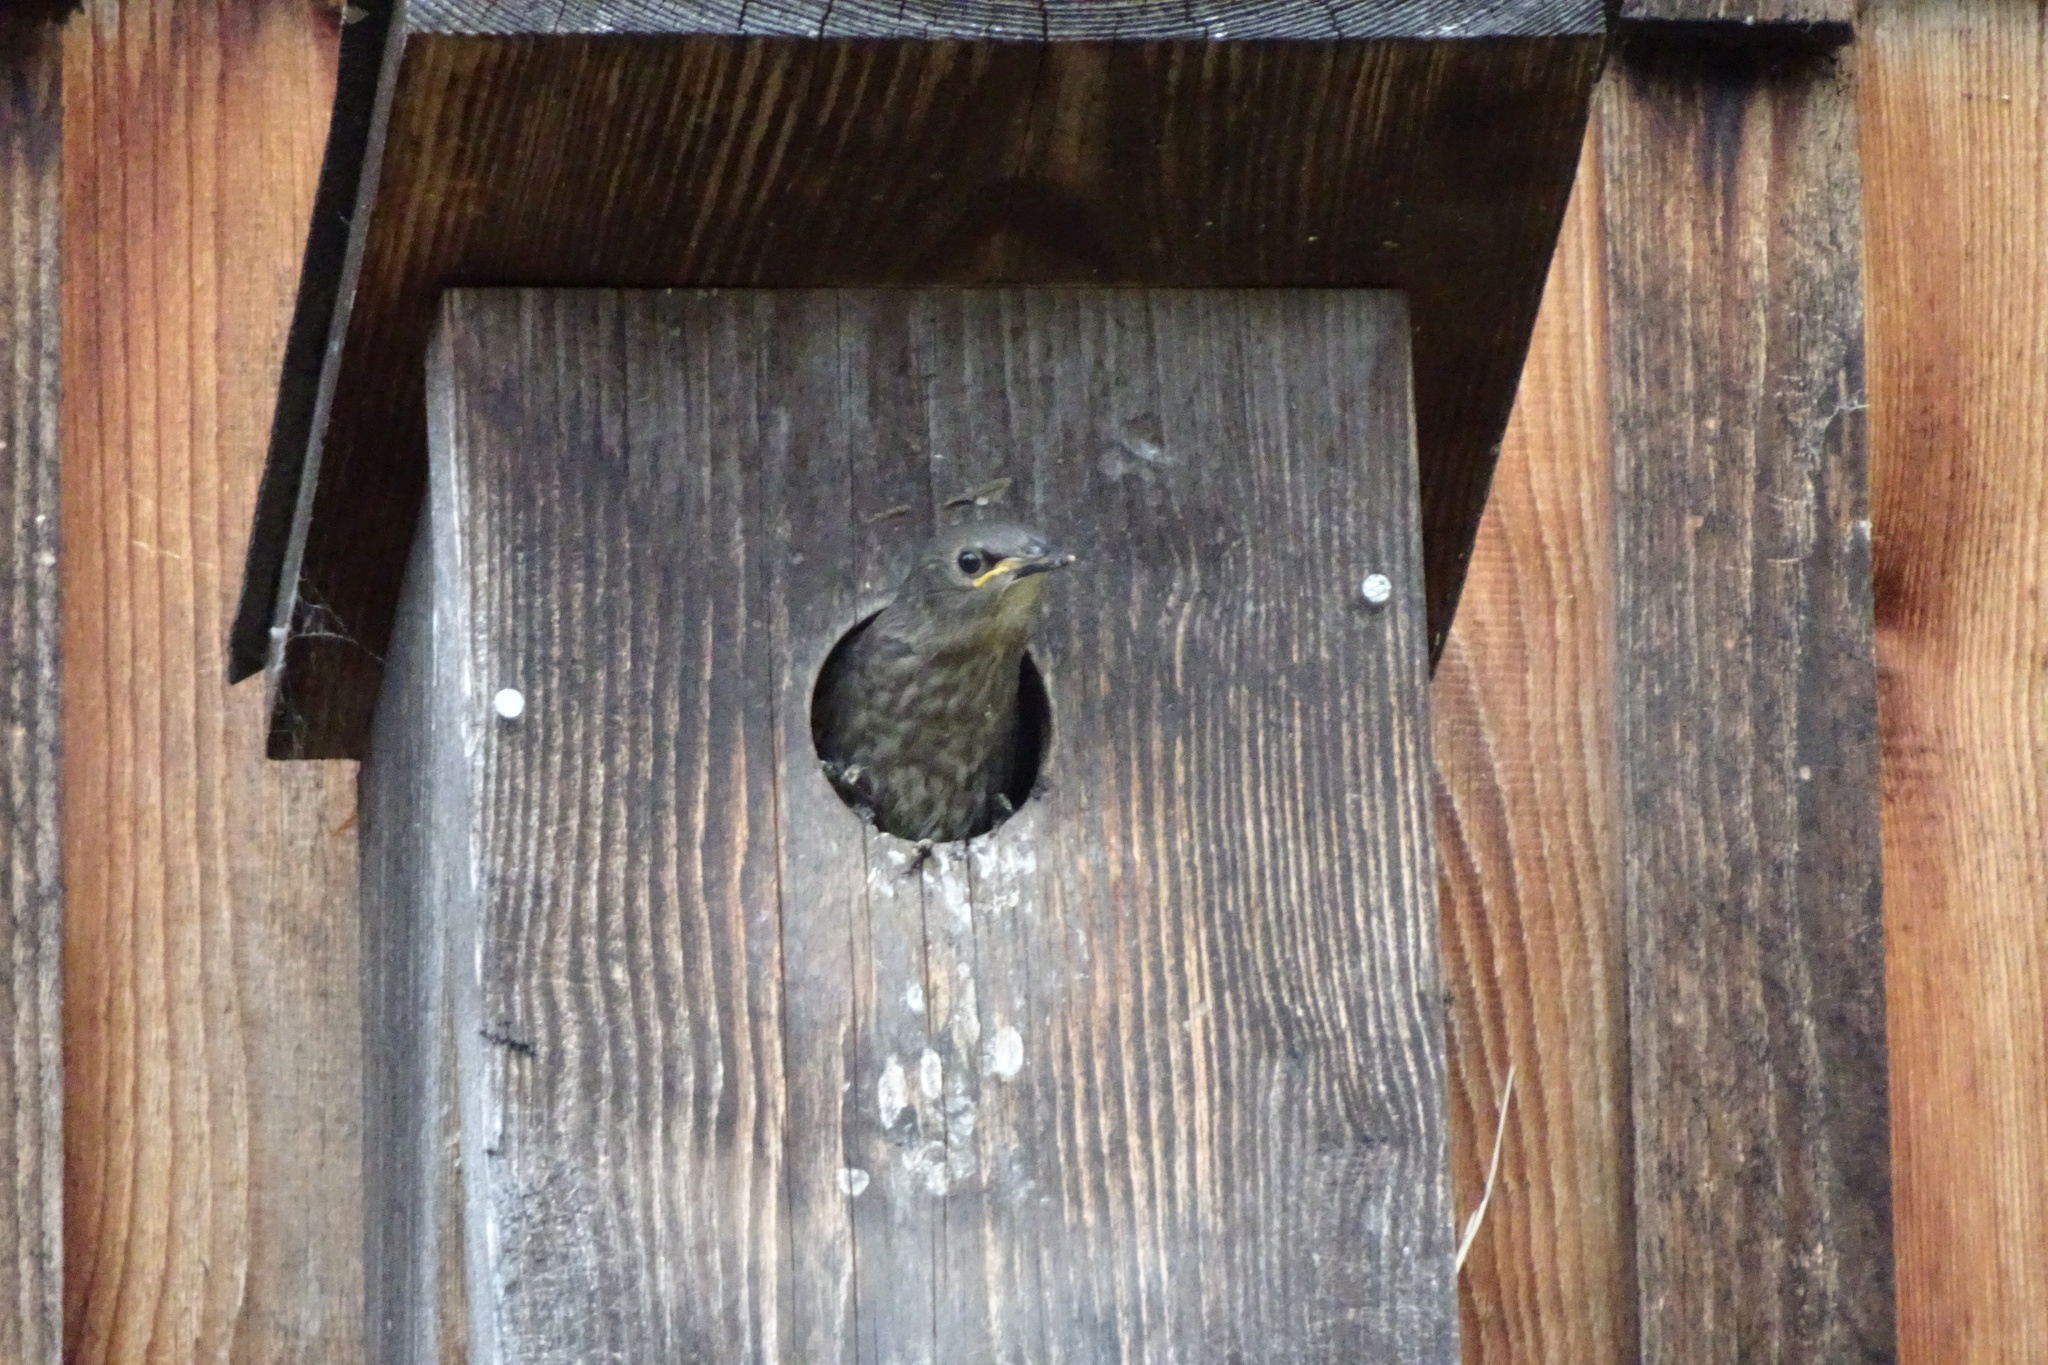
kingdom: Animalia
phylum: Chordata
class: Aves
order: Passeriformes
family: Sturnidae
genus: Sturnus
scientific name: Sturnus vulgaris
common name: Common starling
